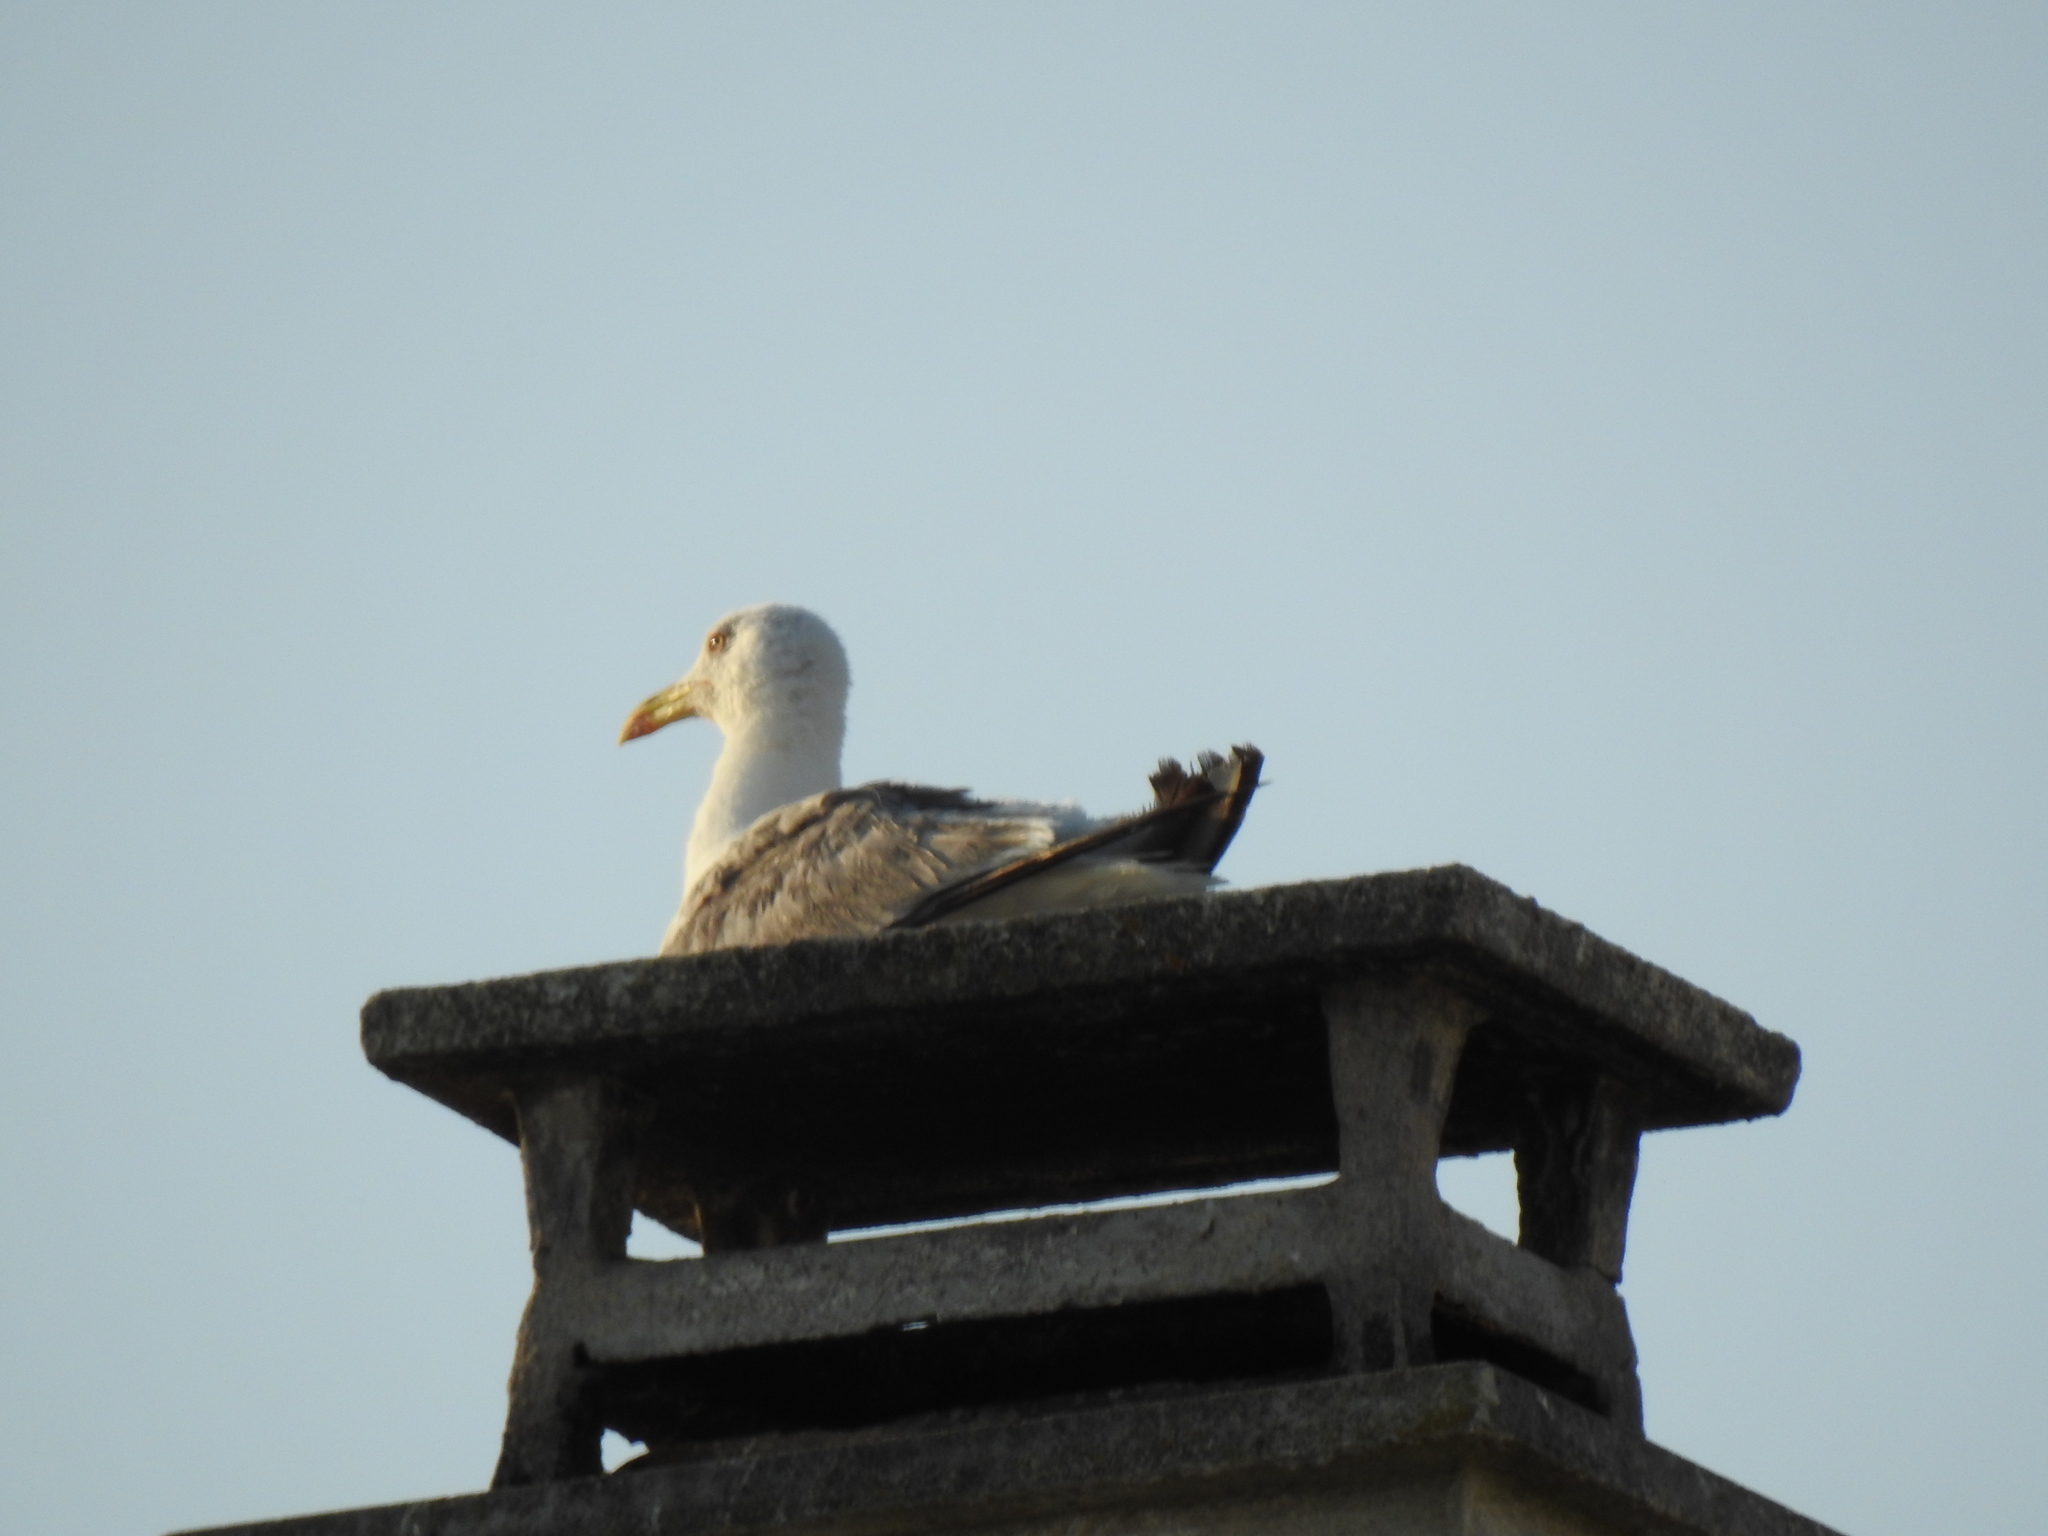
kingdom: Animalia
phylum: Chordata
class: Aves
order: Charadriiformes
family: Laridae
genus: Larus
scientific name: Larus michahellis
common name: Yellow-legged gull
